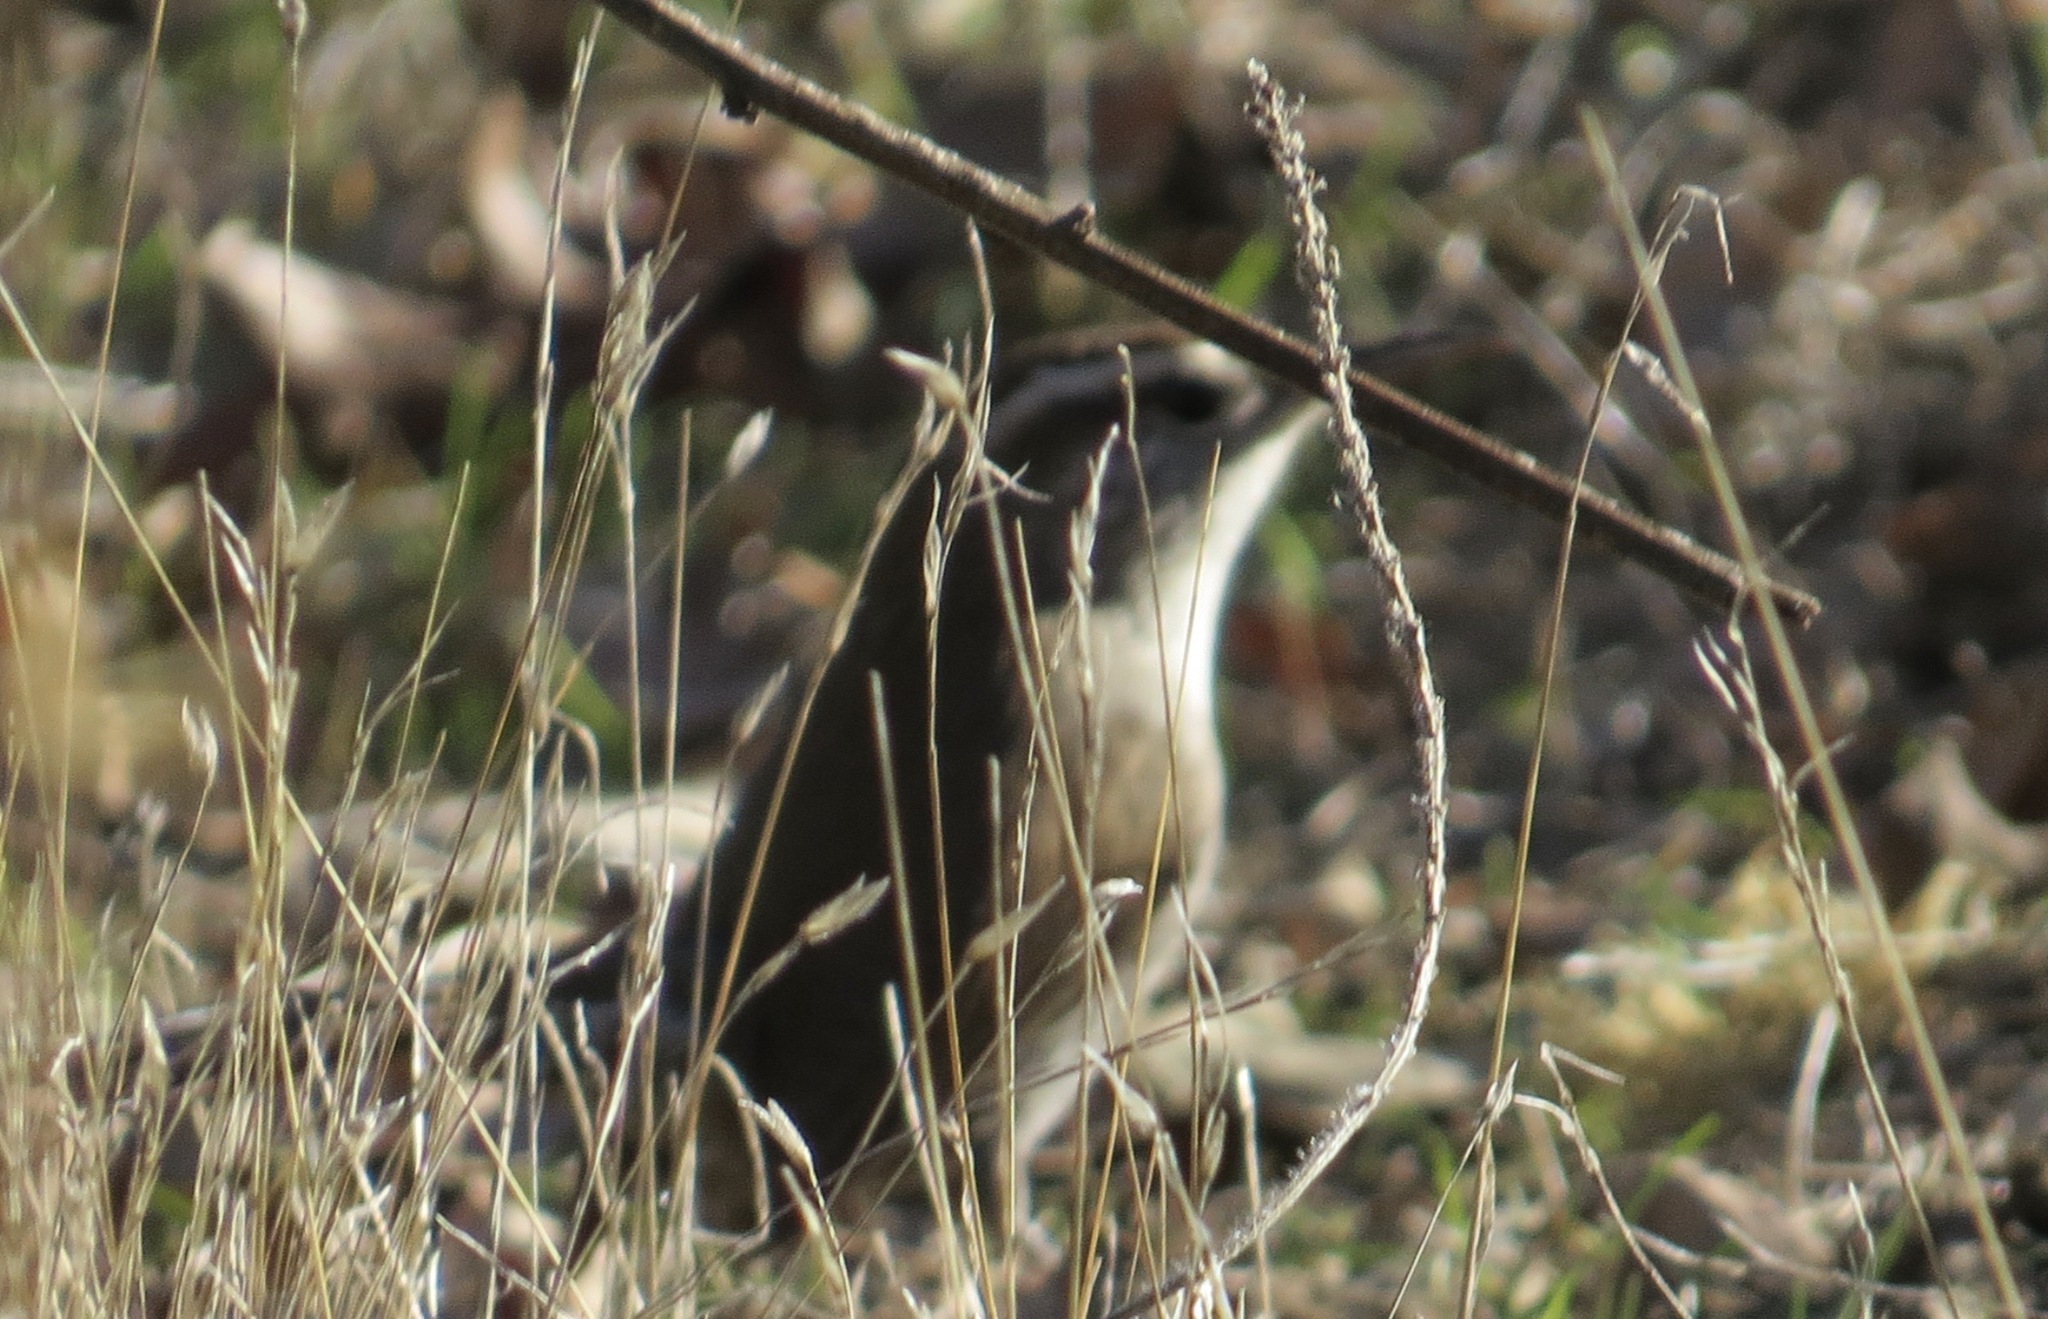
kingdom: Animalia
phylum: Chordata
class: Aves
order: Passeriformes
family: Troglodytidae
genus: Thryomanes
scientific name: Thryomanes bewickii
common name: Bewick's wren
